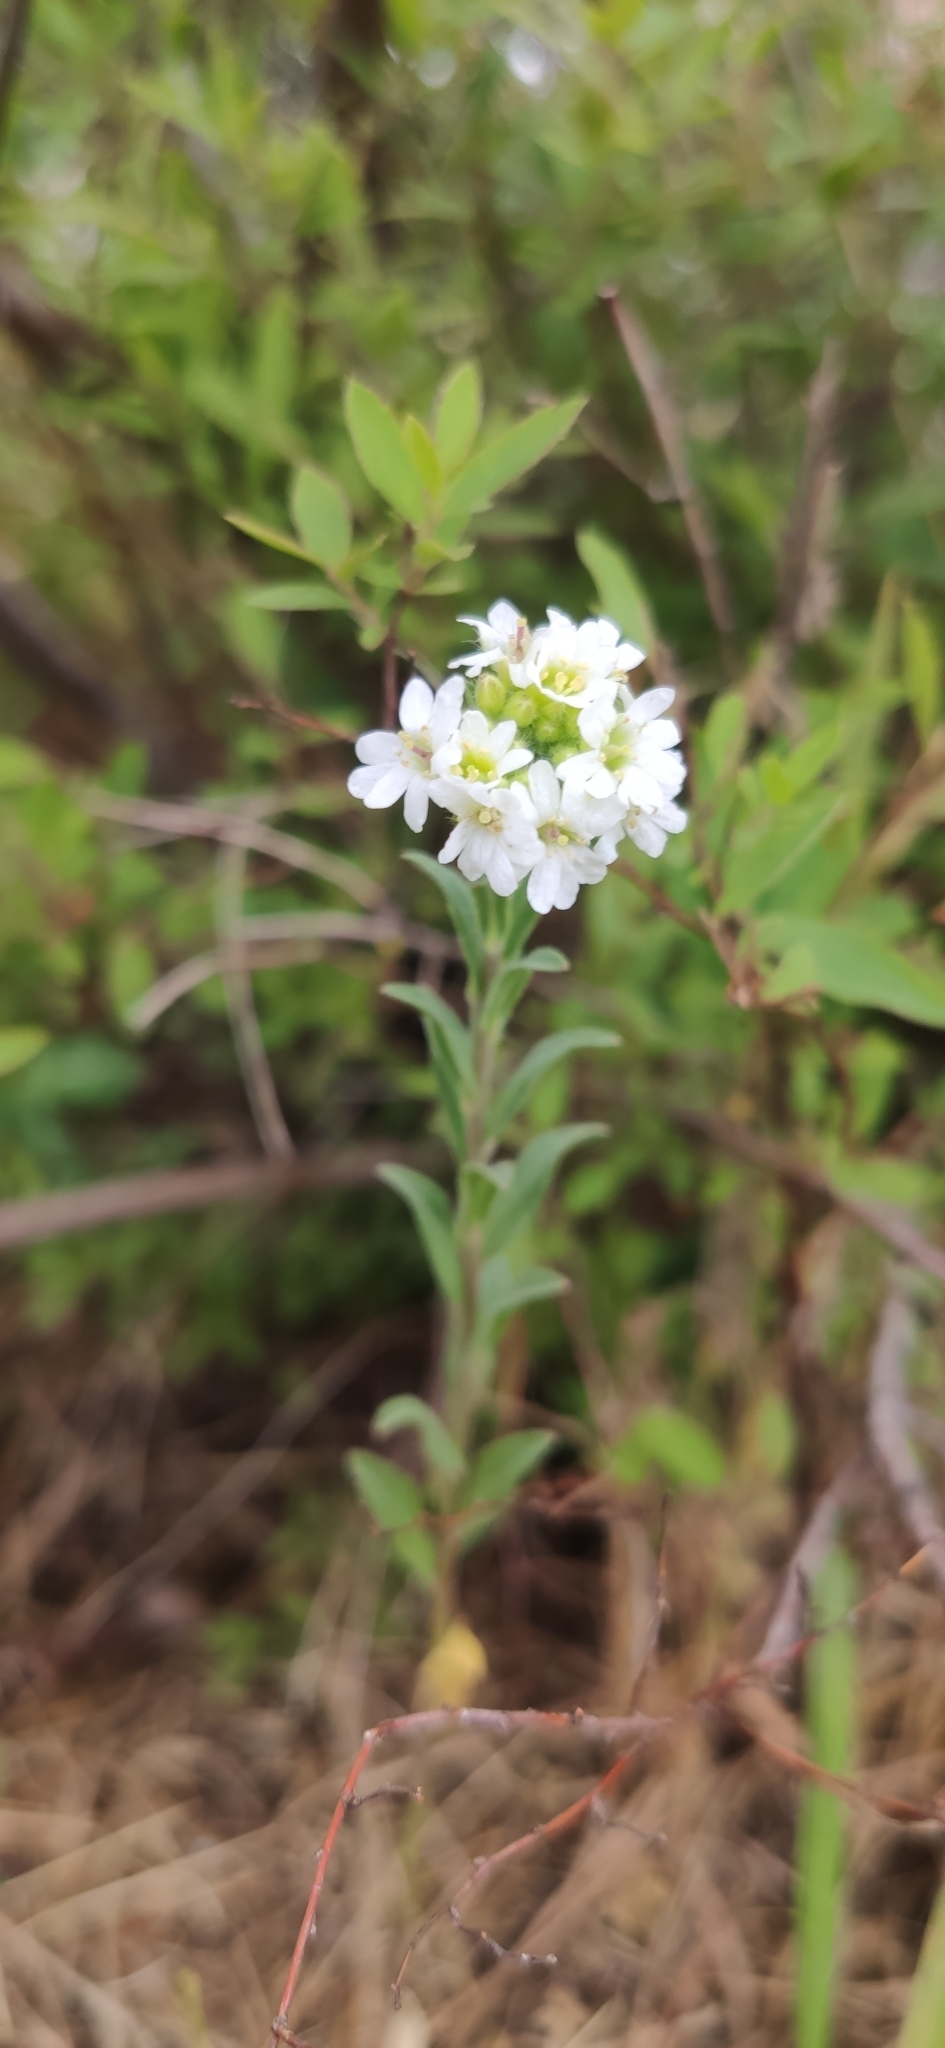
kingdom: Plantae
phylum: Tracheophyta
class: Magnoliopsida
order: Brassicales
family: Brassicaceae
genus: Berteroa
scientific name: Berteroa incana
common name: Hoary alison
